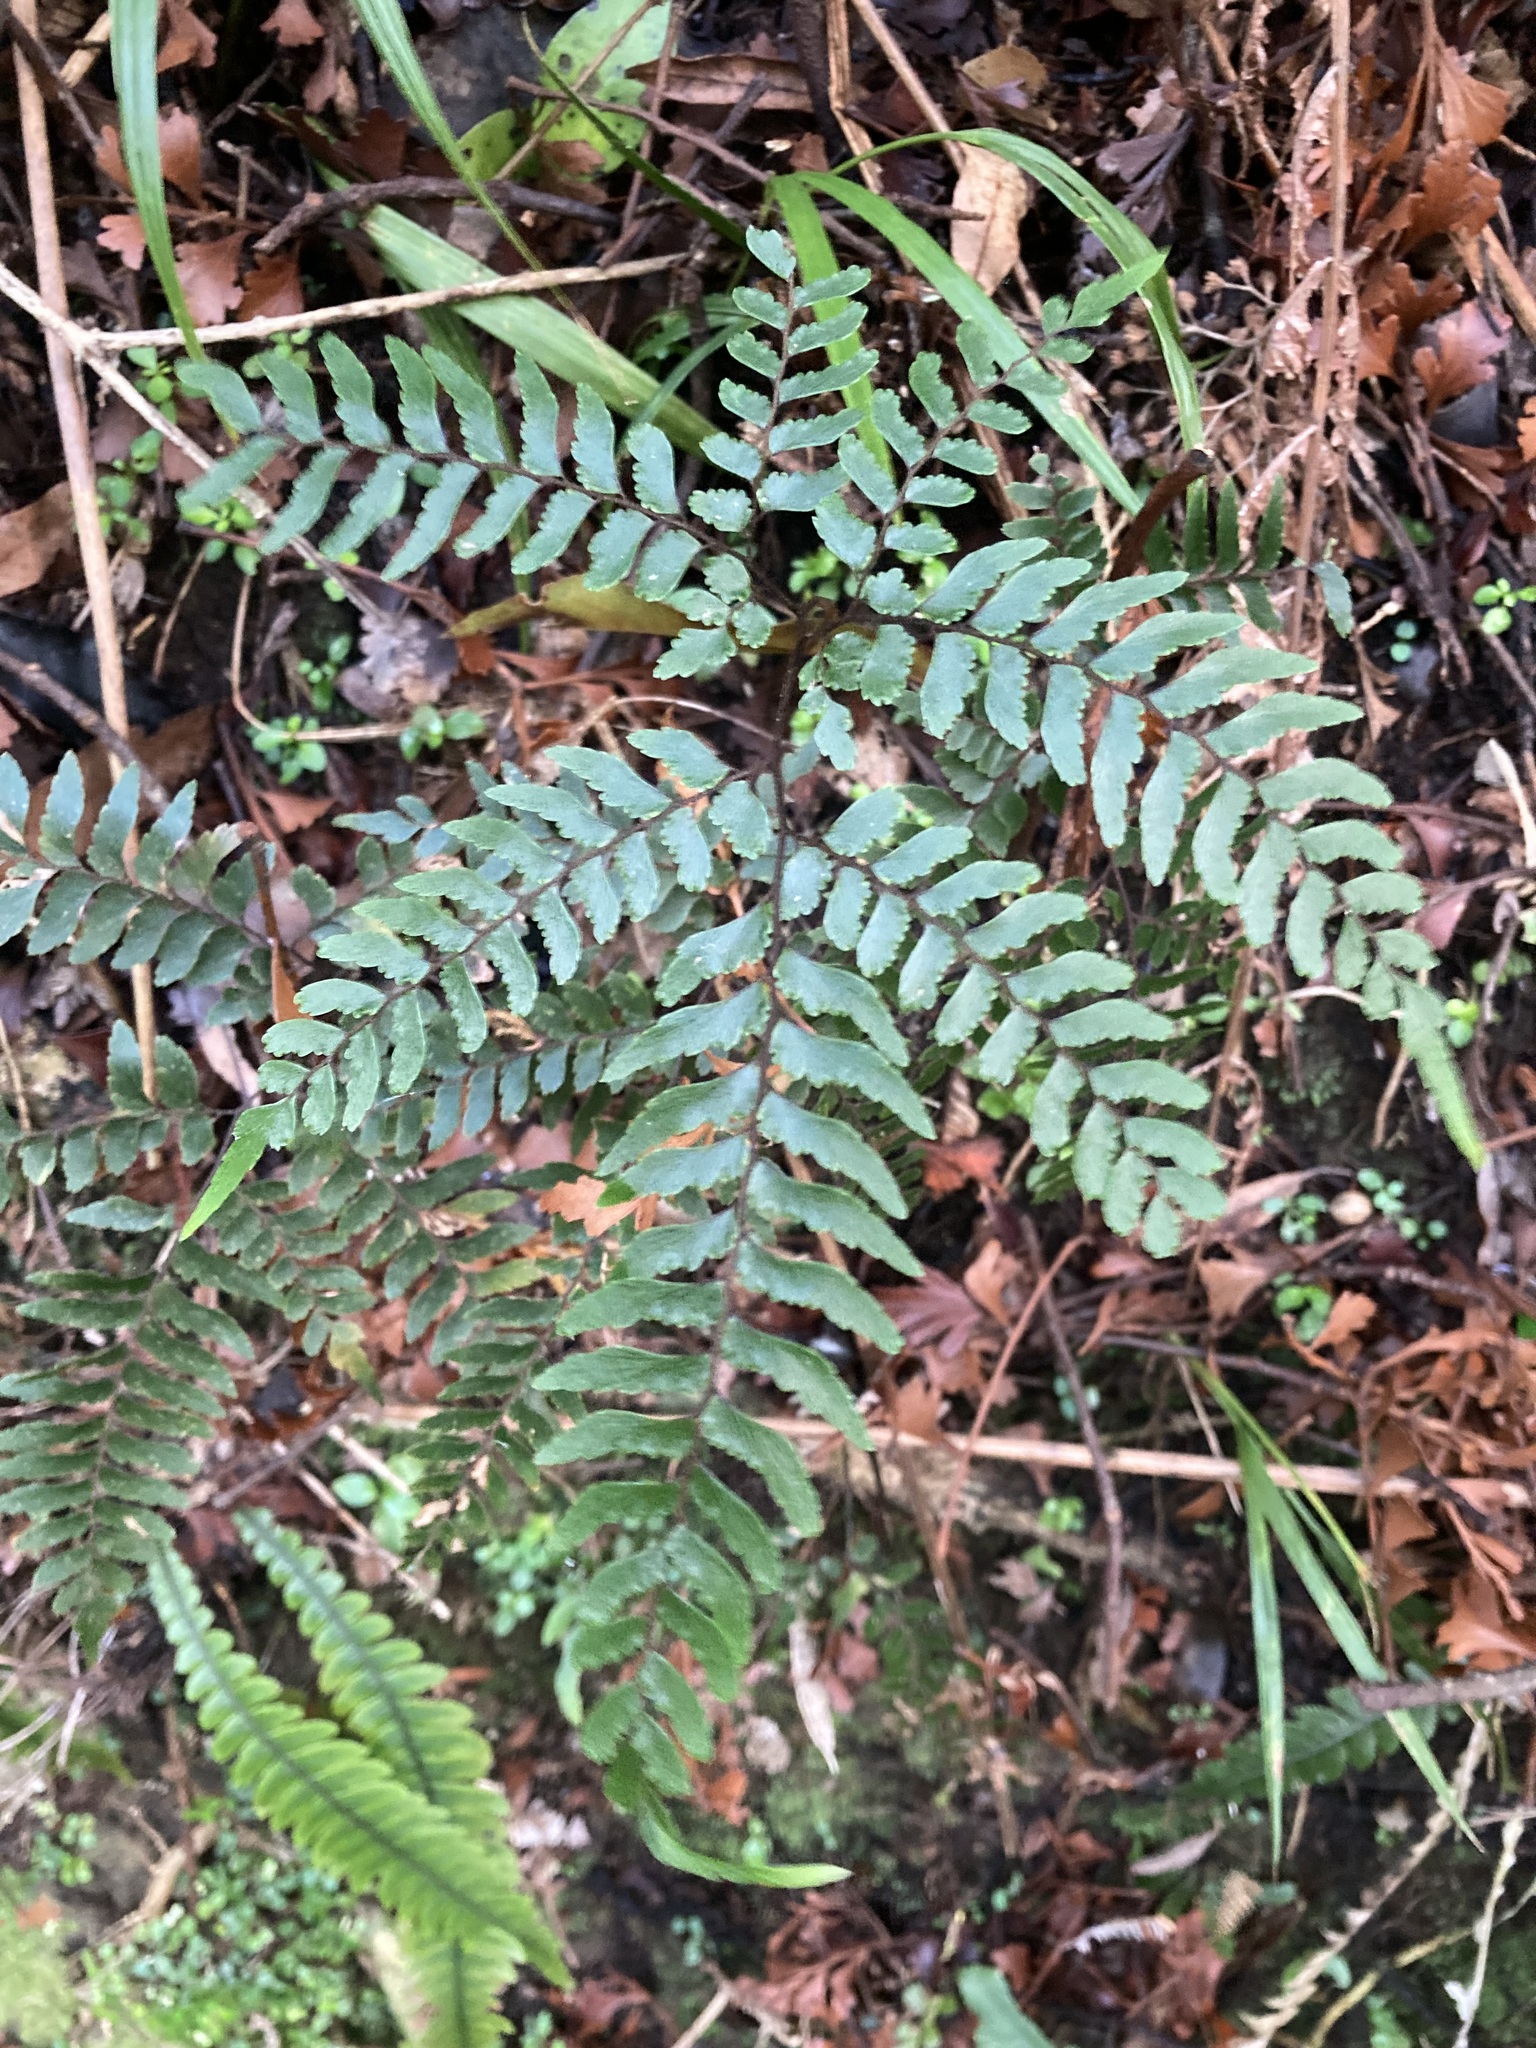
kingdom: Plantae
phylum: Tracheophyta
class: Polypodiopsida
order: Polypodiales
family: Pteridaceae
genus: Adiantum
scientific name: Adiantum fulvum
